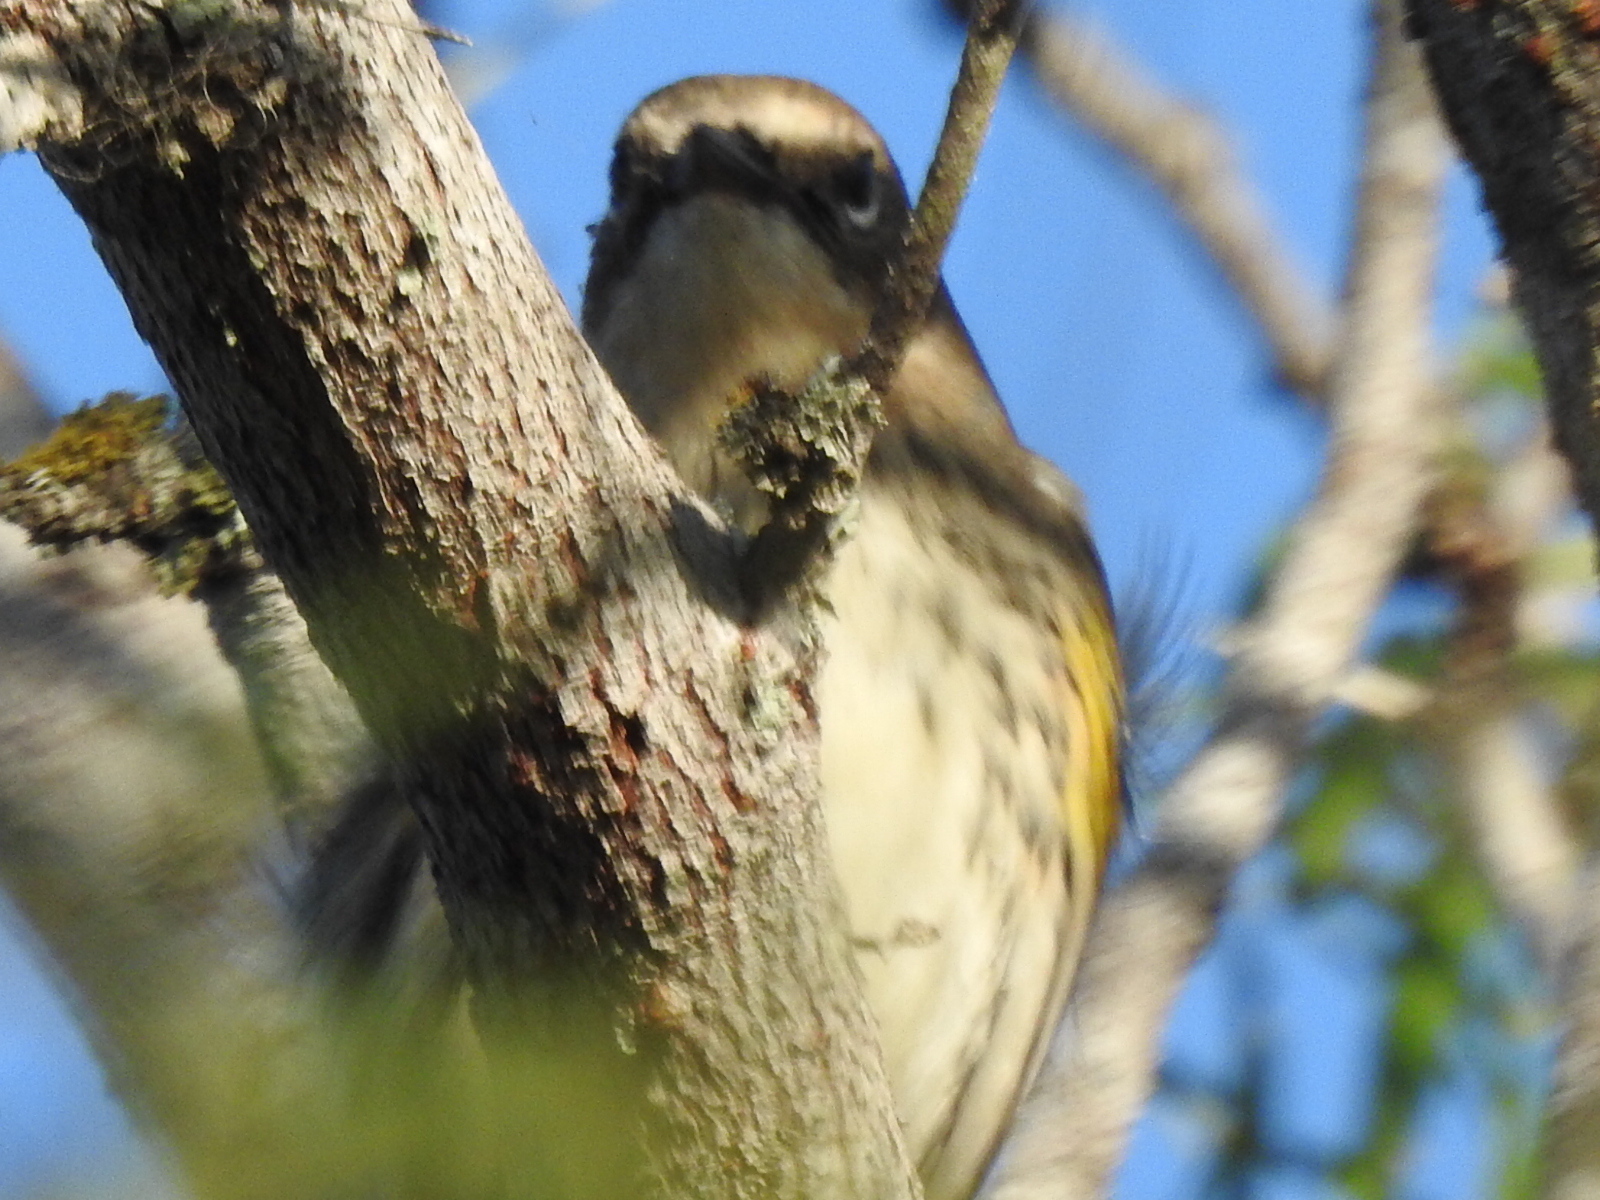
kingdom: Animalia
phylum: Chordata
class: Aves
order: Passeriformes
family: Parulidae
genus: Setophaga
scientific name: Setophaga coronata
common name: Myrtle warbler
